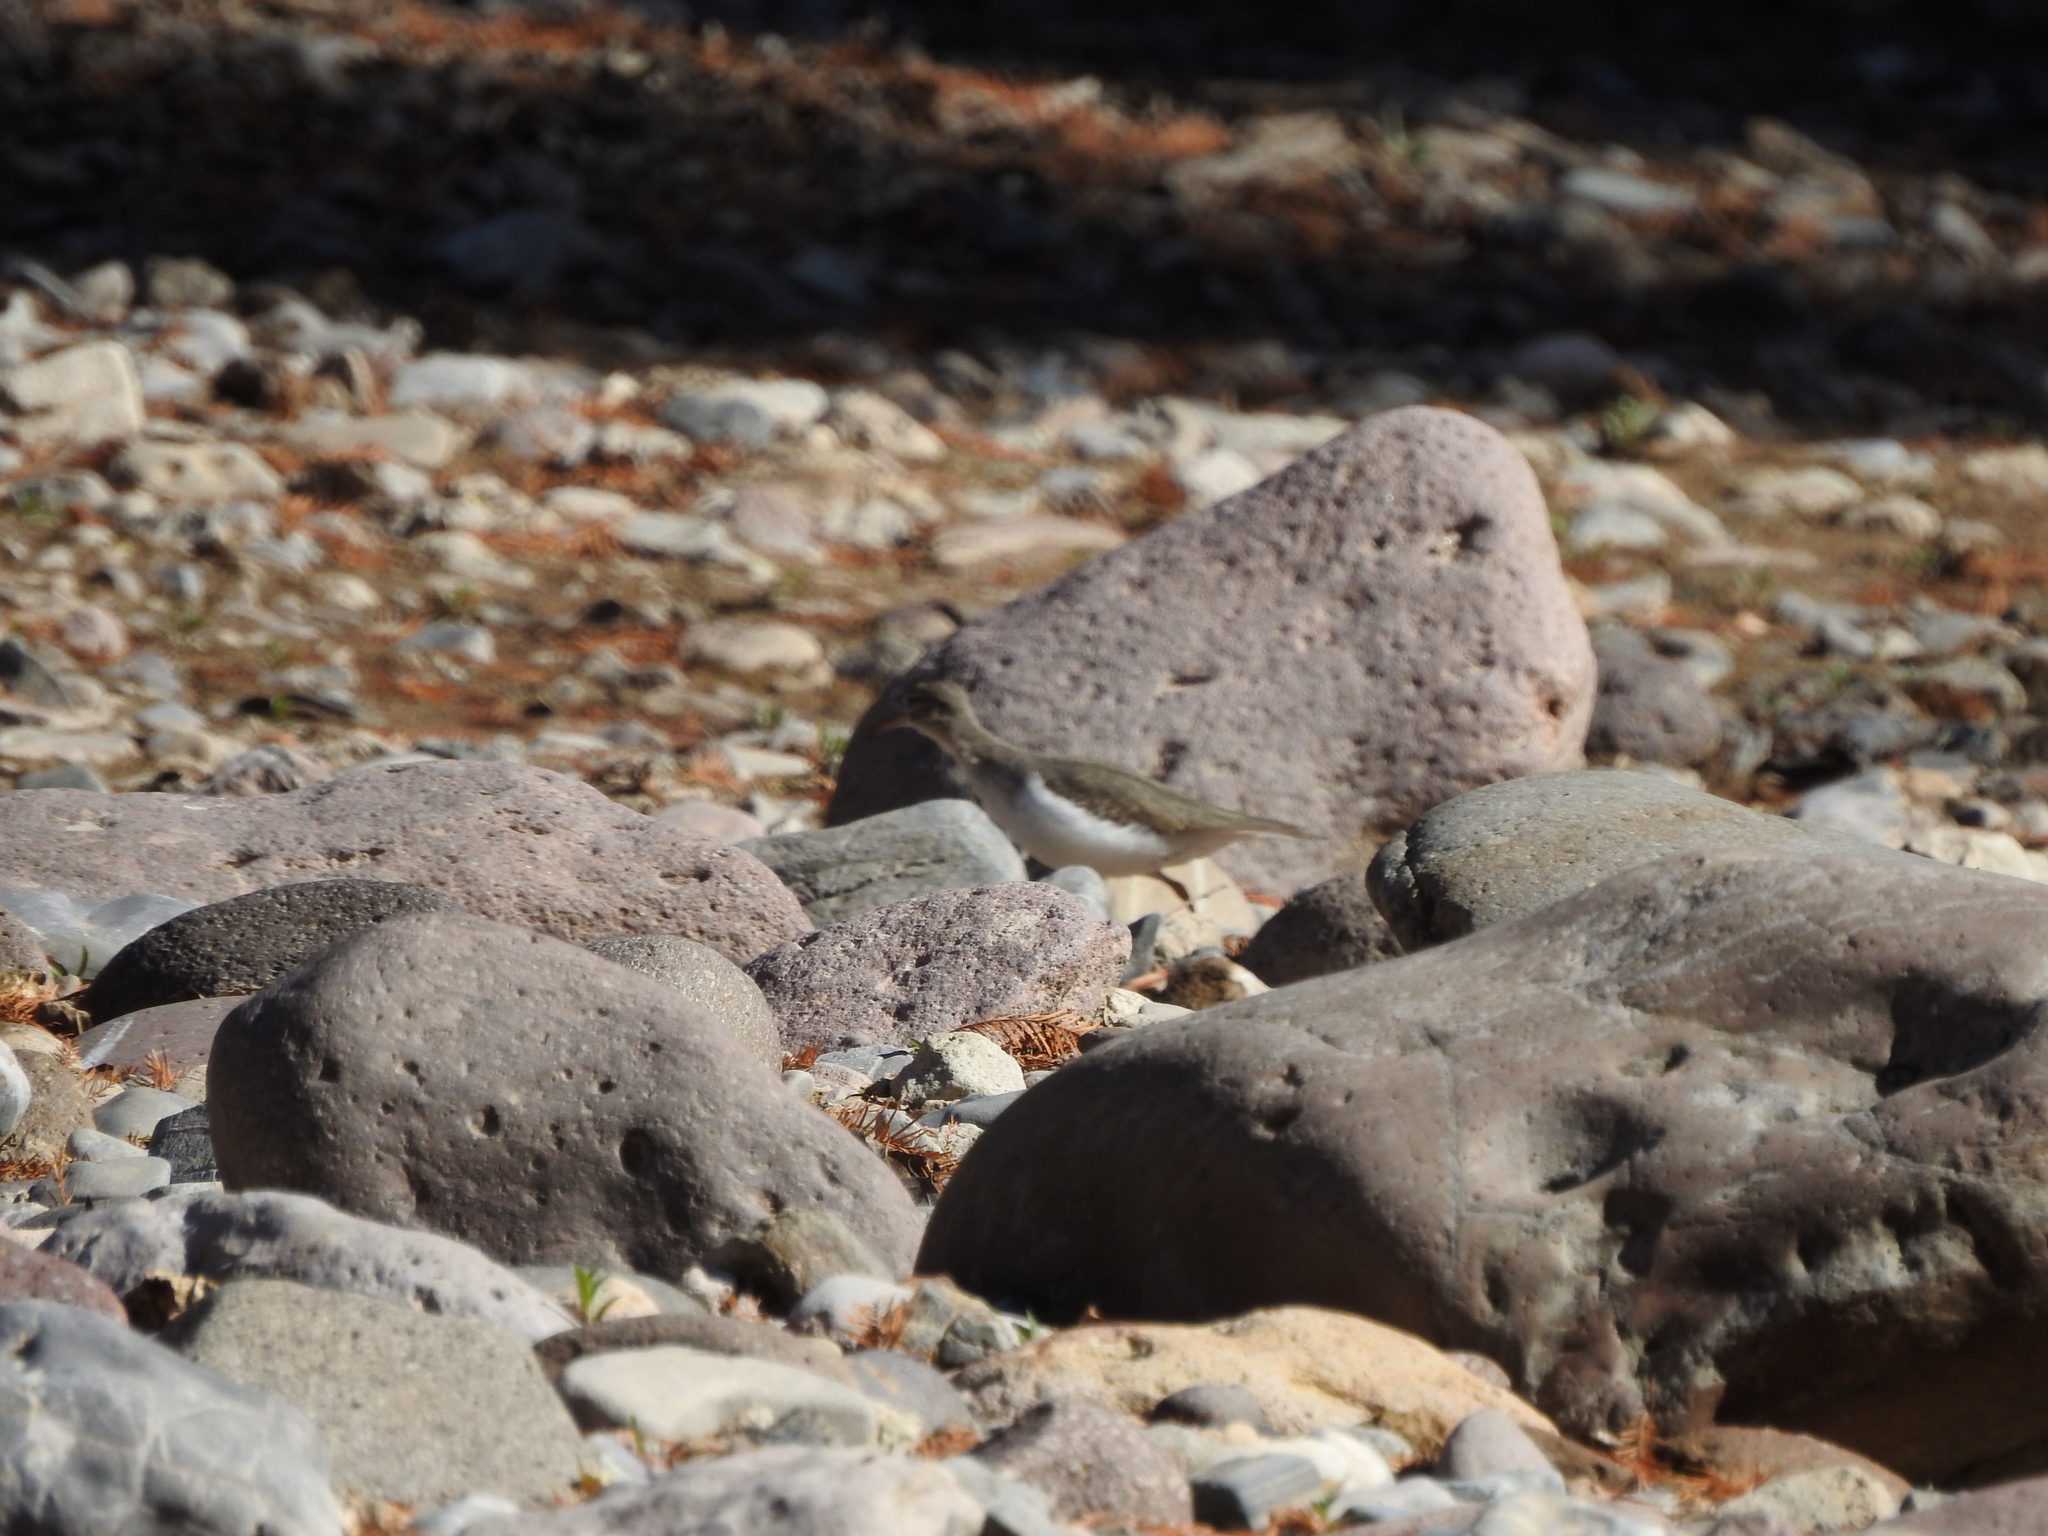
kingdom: Animalia
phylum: Chordata
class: Aves
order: Charadriiformes
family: Scolopacidae
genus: Actitis
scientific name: Actitis macularius
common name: Spotted sandpiper
